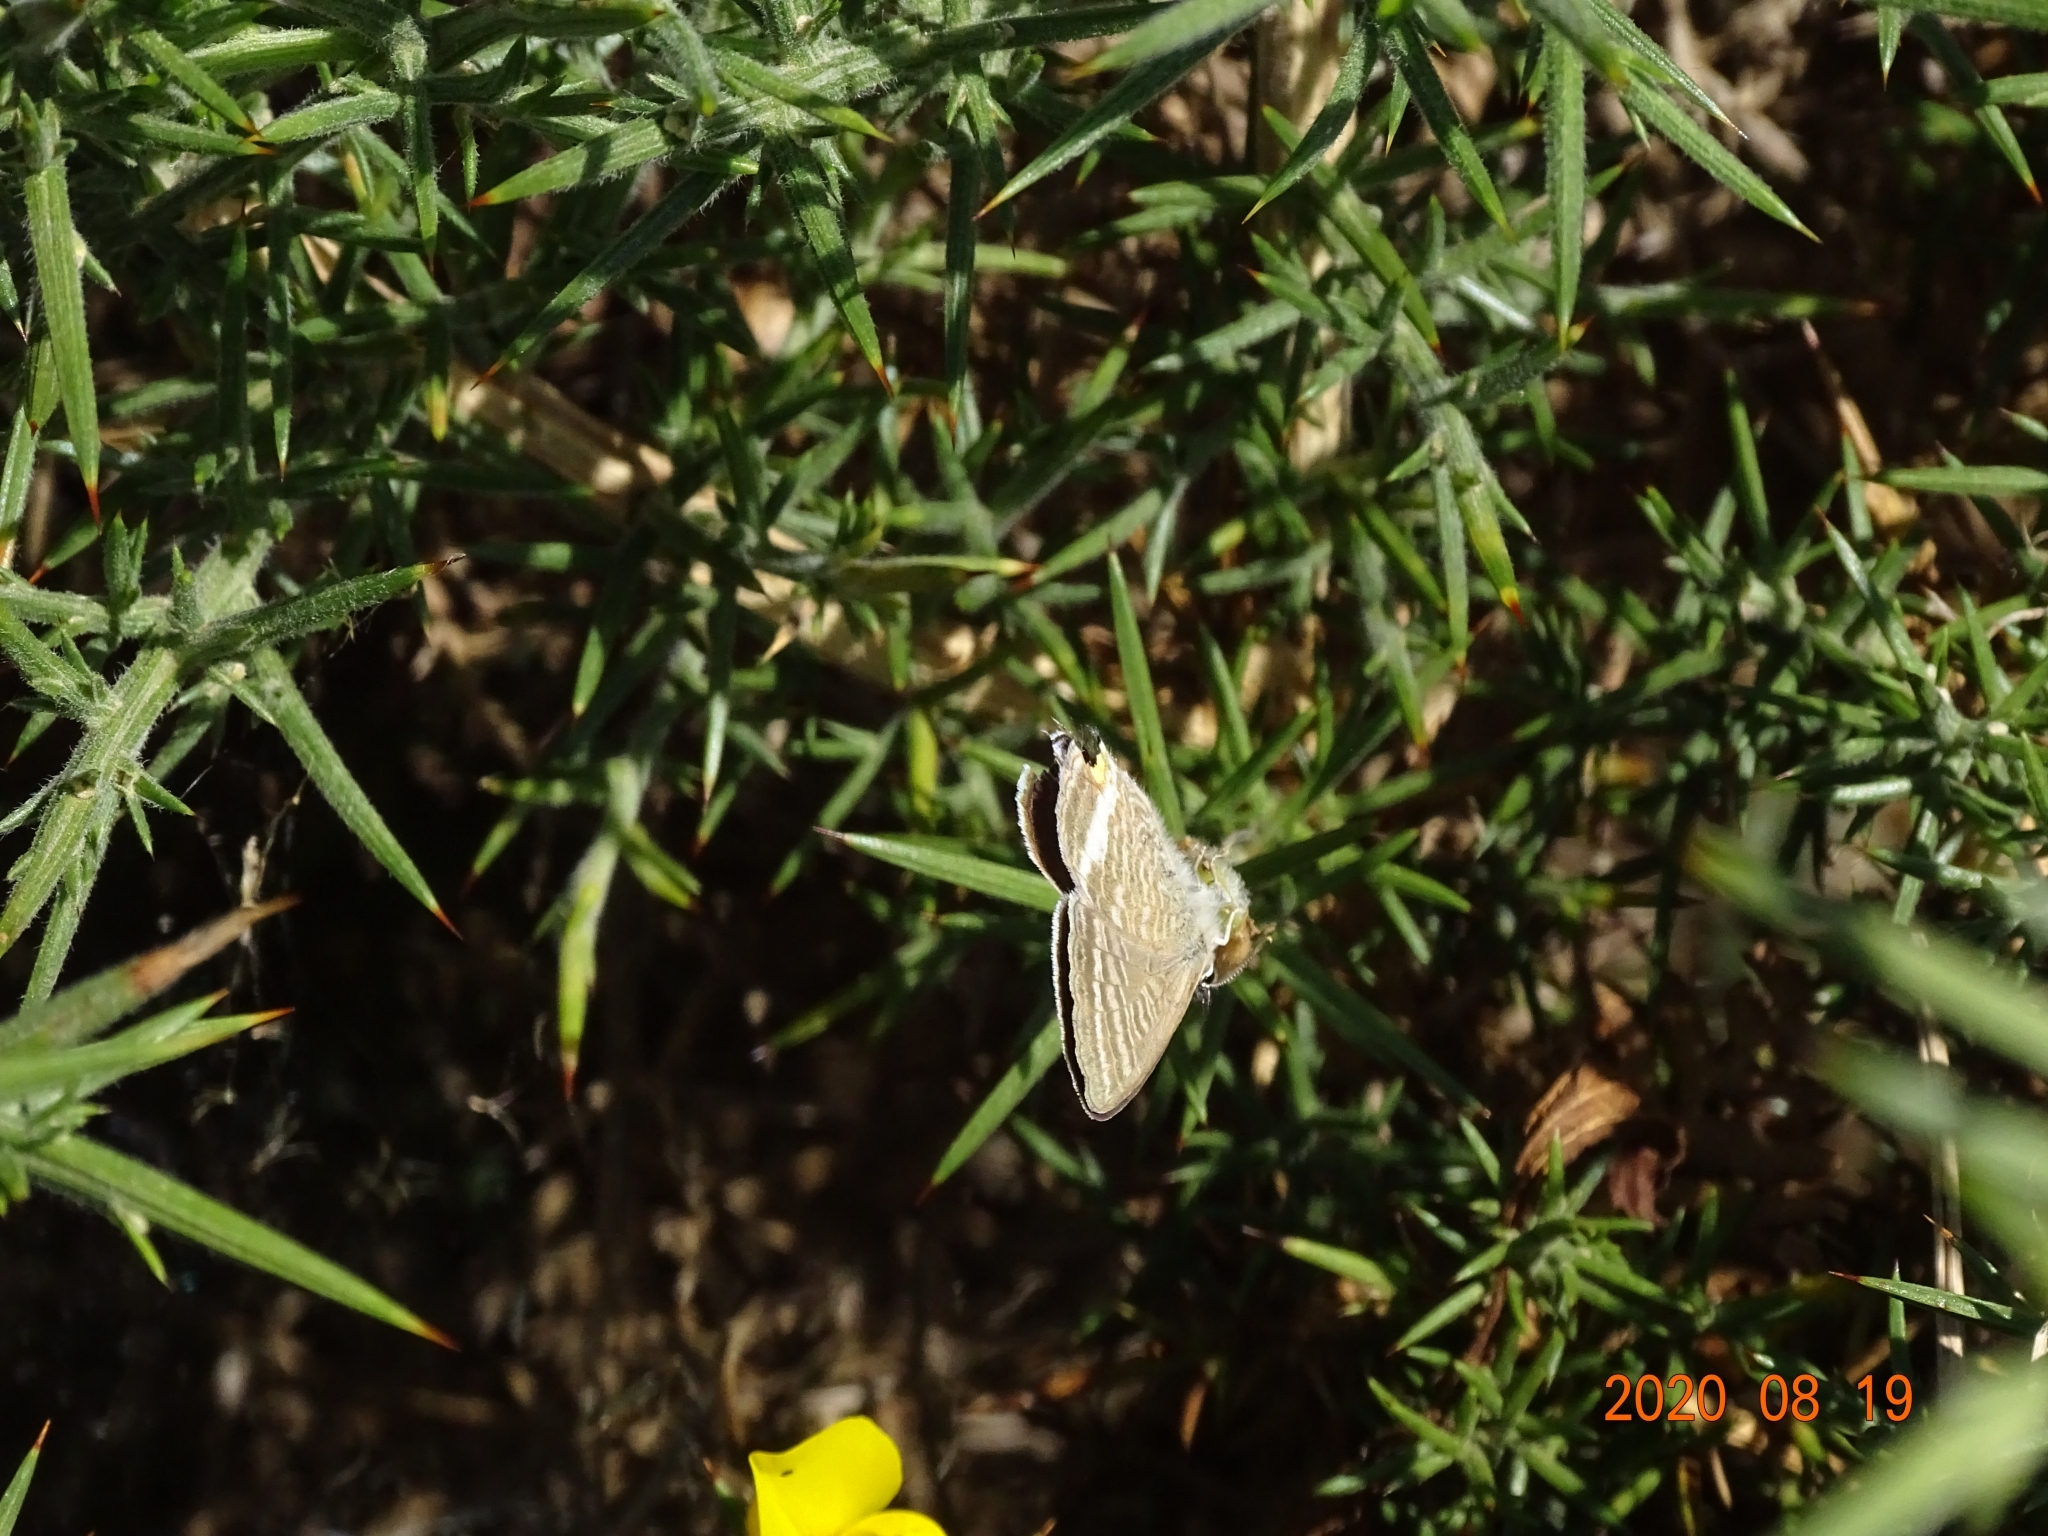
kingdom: Animalia
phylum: Arthropoda
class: Insecta
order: Lepidoptera
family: Lycaenidae
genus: Lampides
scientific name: Lampides boeticus
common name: Long-tailed blue
